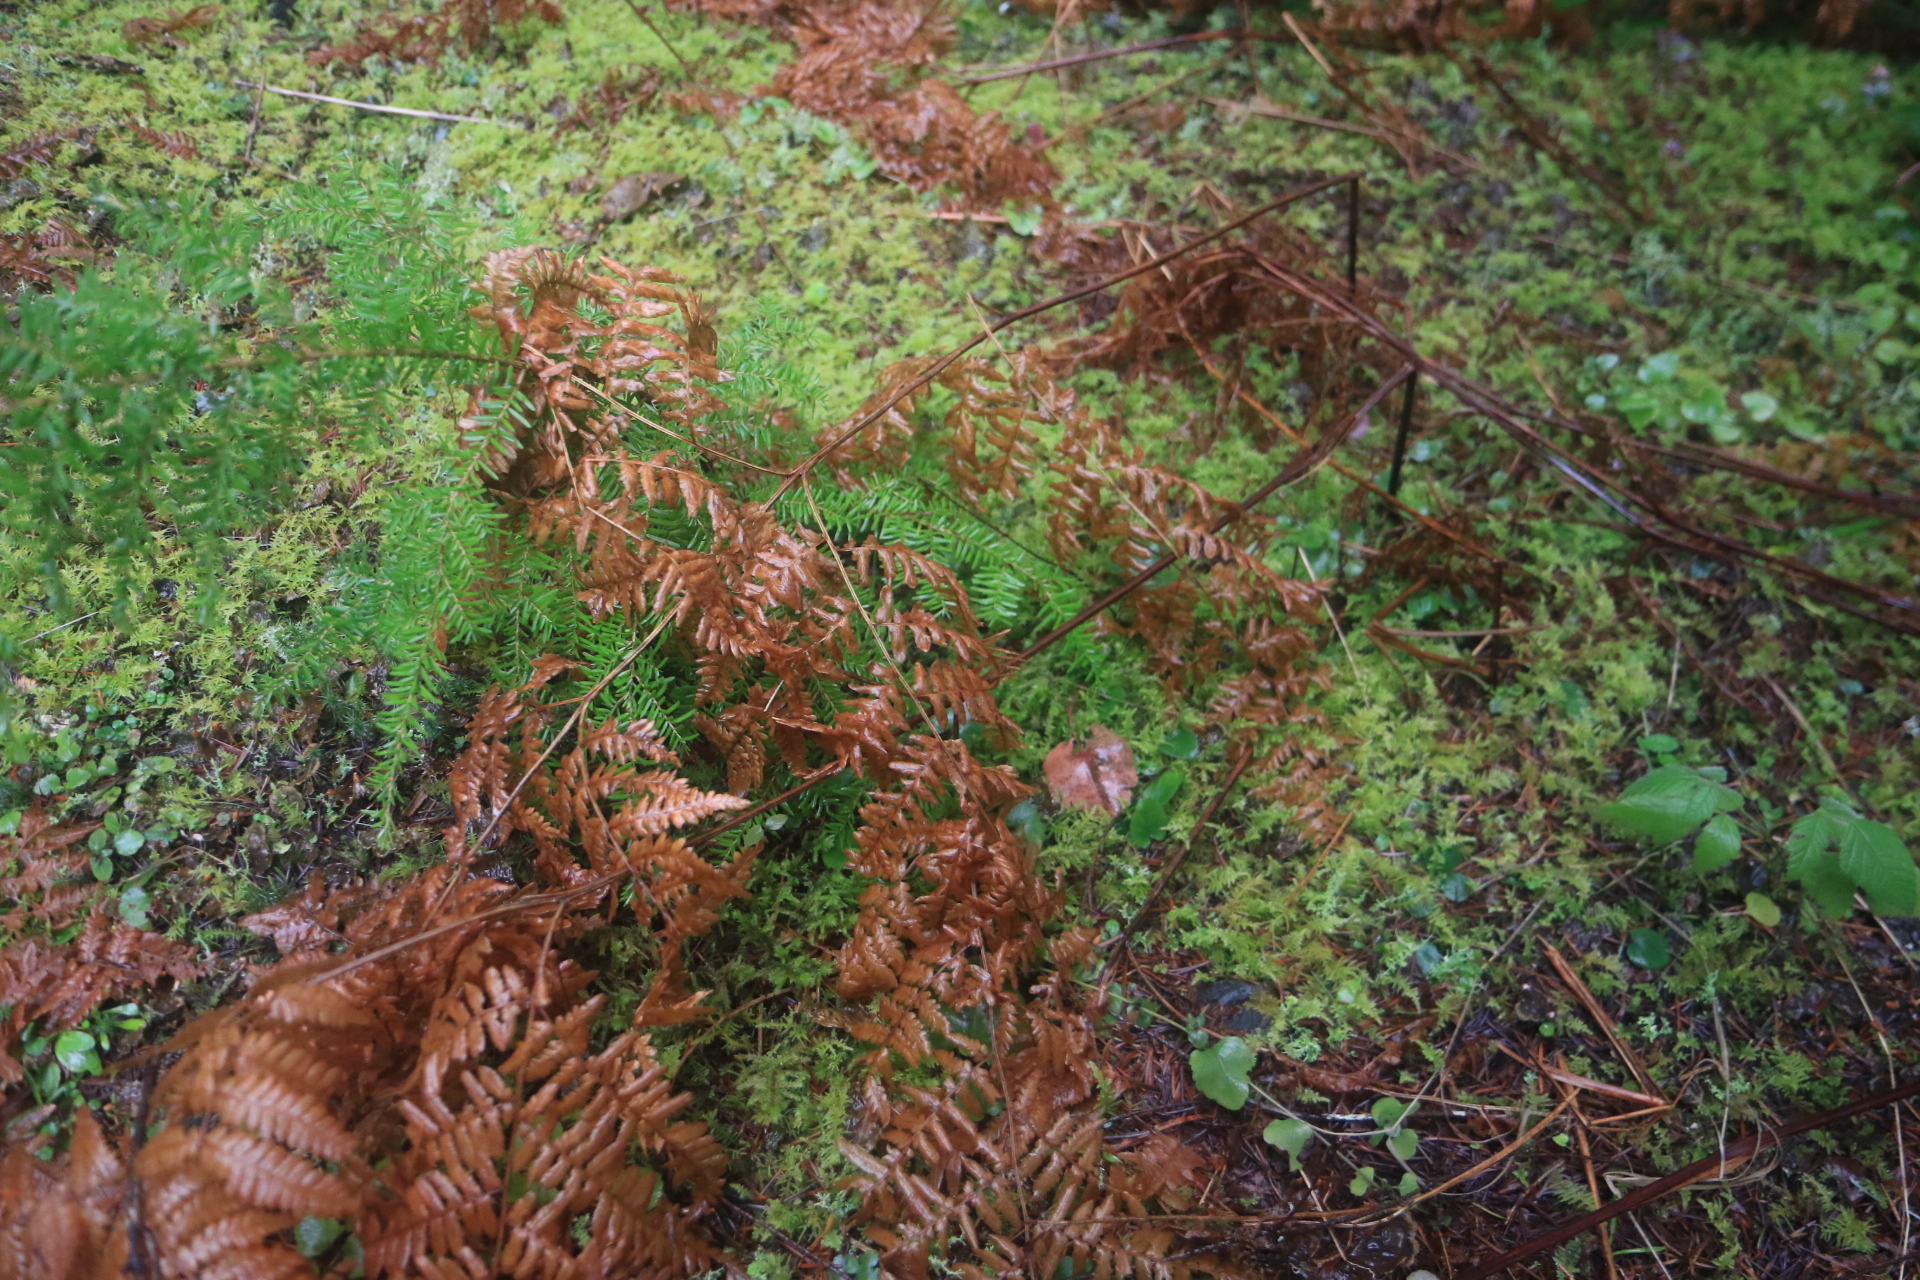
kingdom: Plantae
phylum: Tracheophyta
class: Polypodiopsida
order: Polypodiales
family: Dennstaedtiaceae
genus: Pteridium
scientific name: Pteridium aquilinum
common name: Bracken
